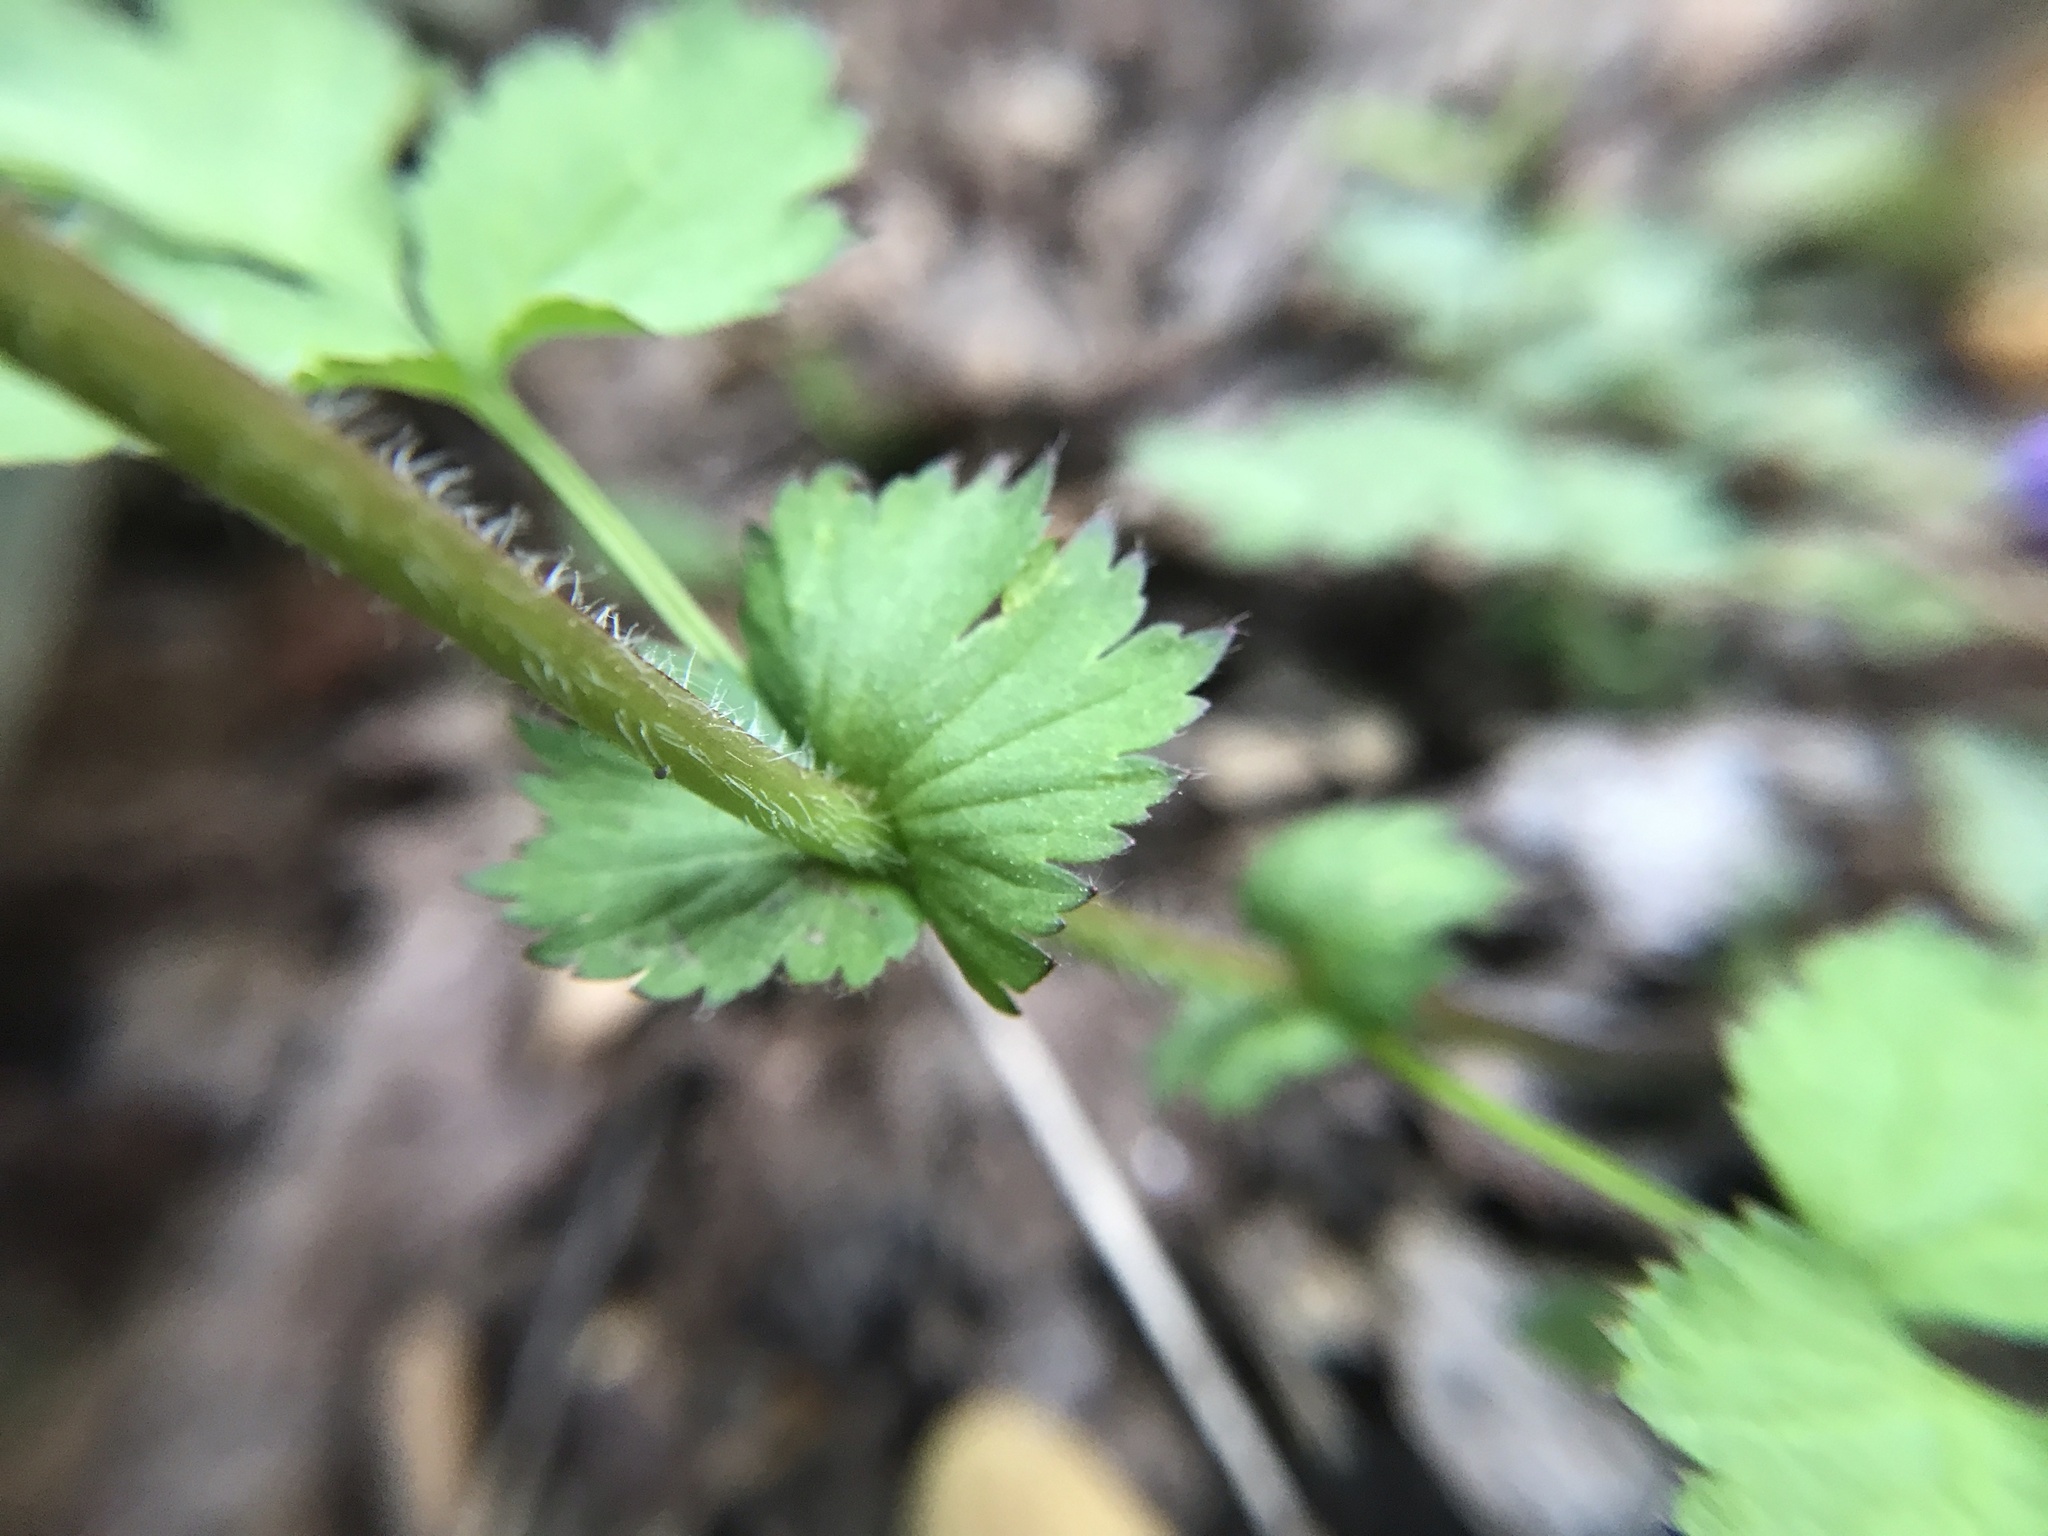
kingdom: Plantae
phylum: Tracheophyta
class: Magnoliopsida
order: Rosales
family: Rosaceae
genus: Geum
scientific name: Geum vernum
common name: Spring avens
